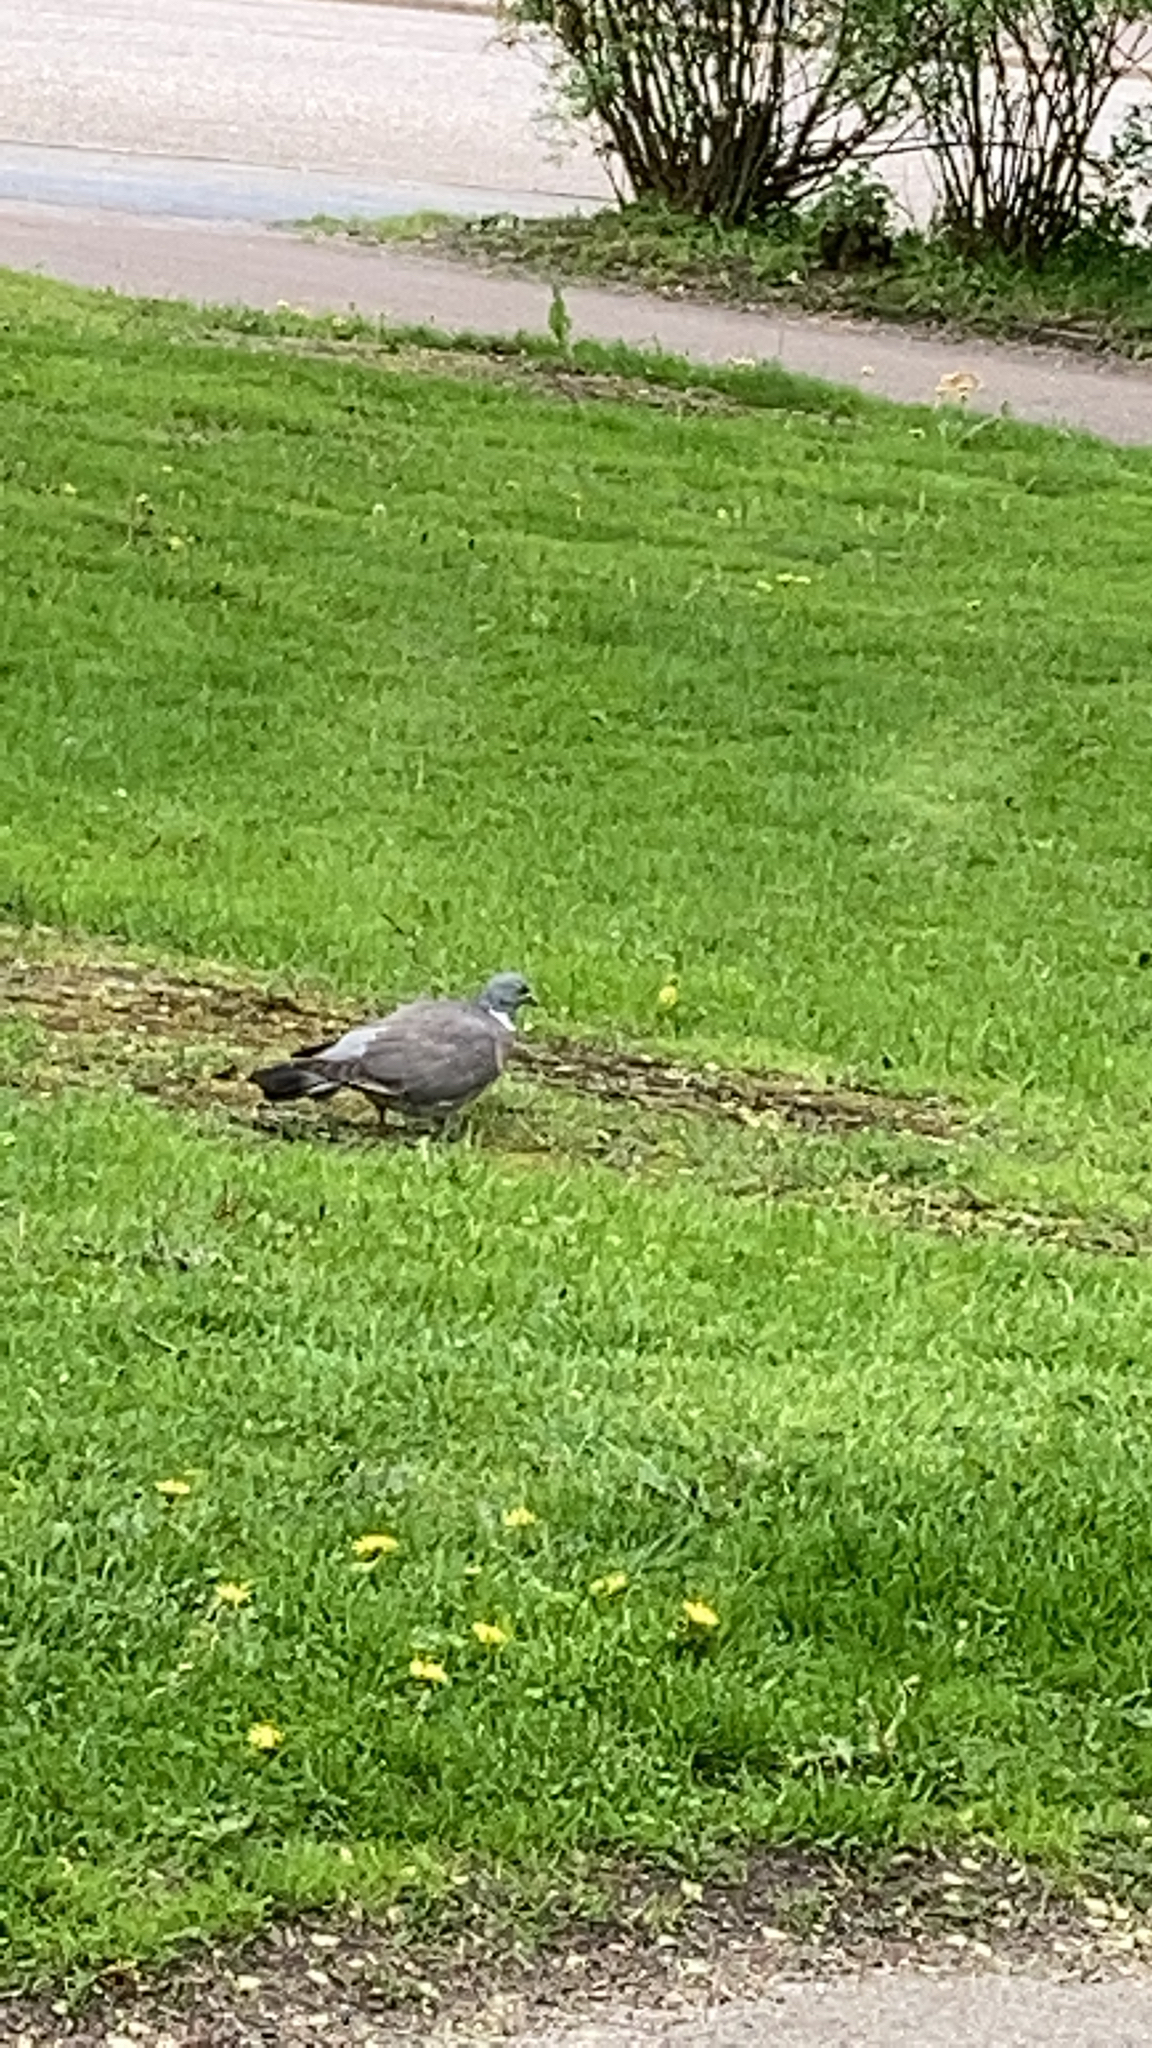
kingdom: Animalia
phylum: Chordata
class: Aves
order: Columbiformes
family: Columbidae
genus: Columba
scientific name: Columba palumbus
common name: Common wood pigeon
